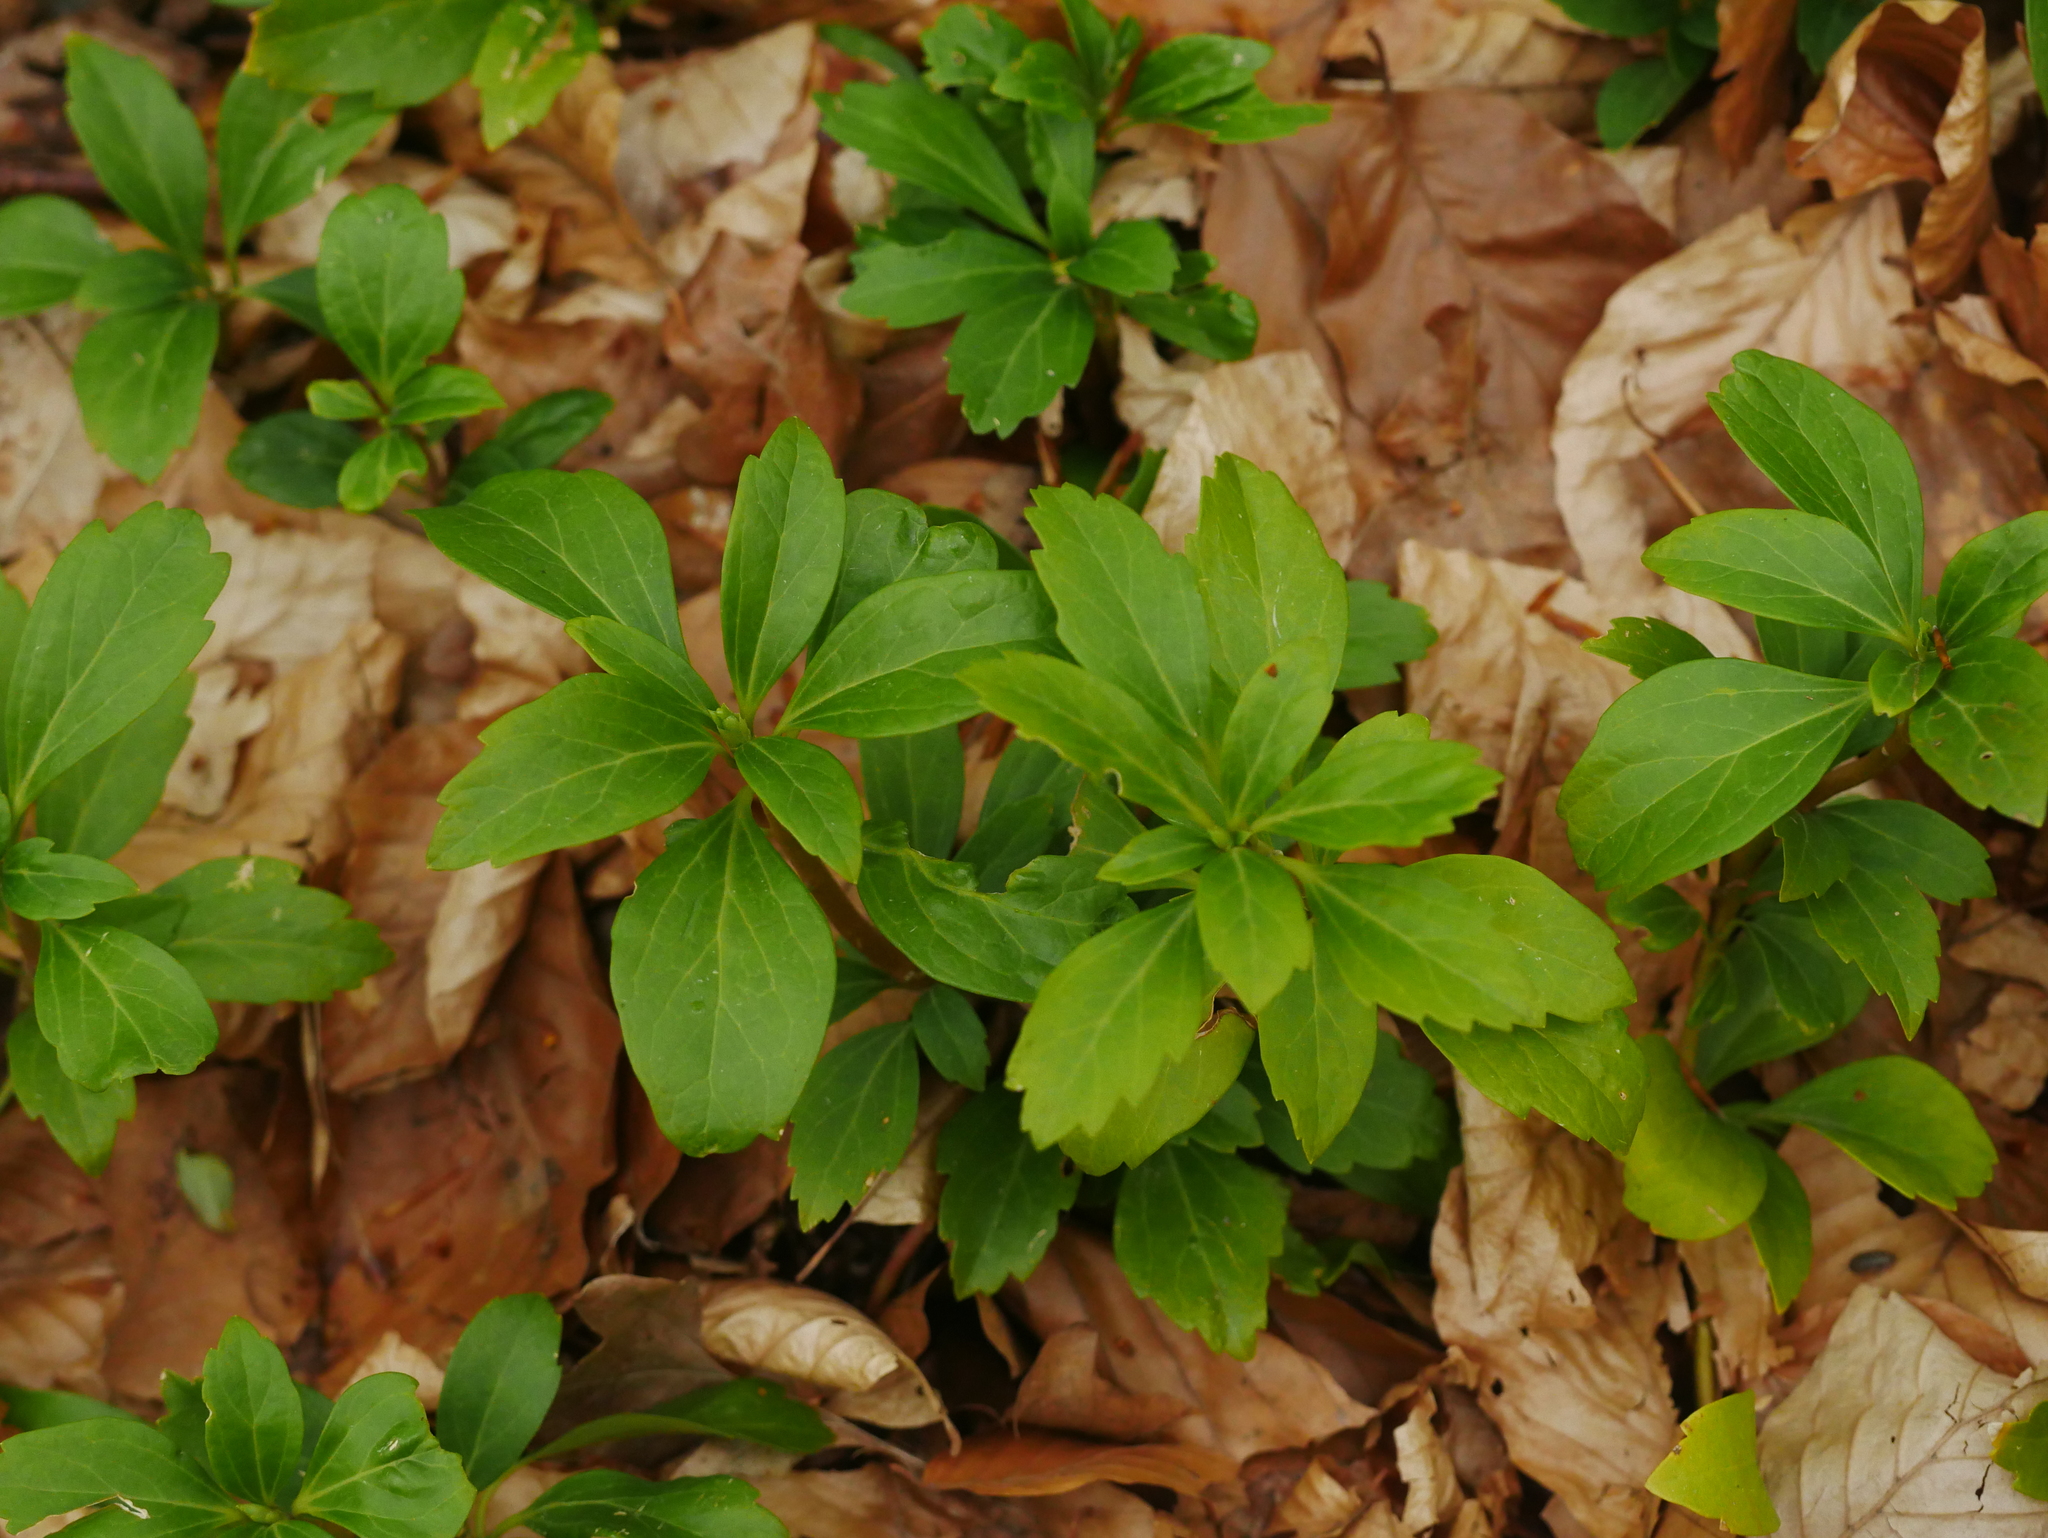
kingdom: Plantae
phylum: Tracheophyta
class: Magnoliopsida
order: Buxales
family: Buxaceae
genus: Pachysandra
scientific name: Pachysandra terminalis
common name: Japanese pachysandra
